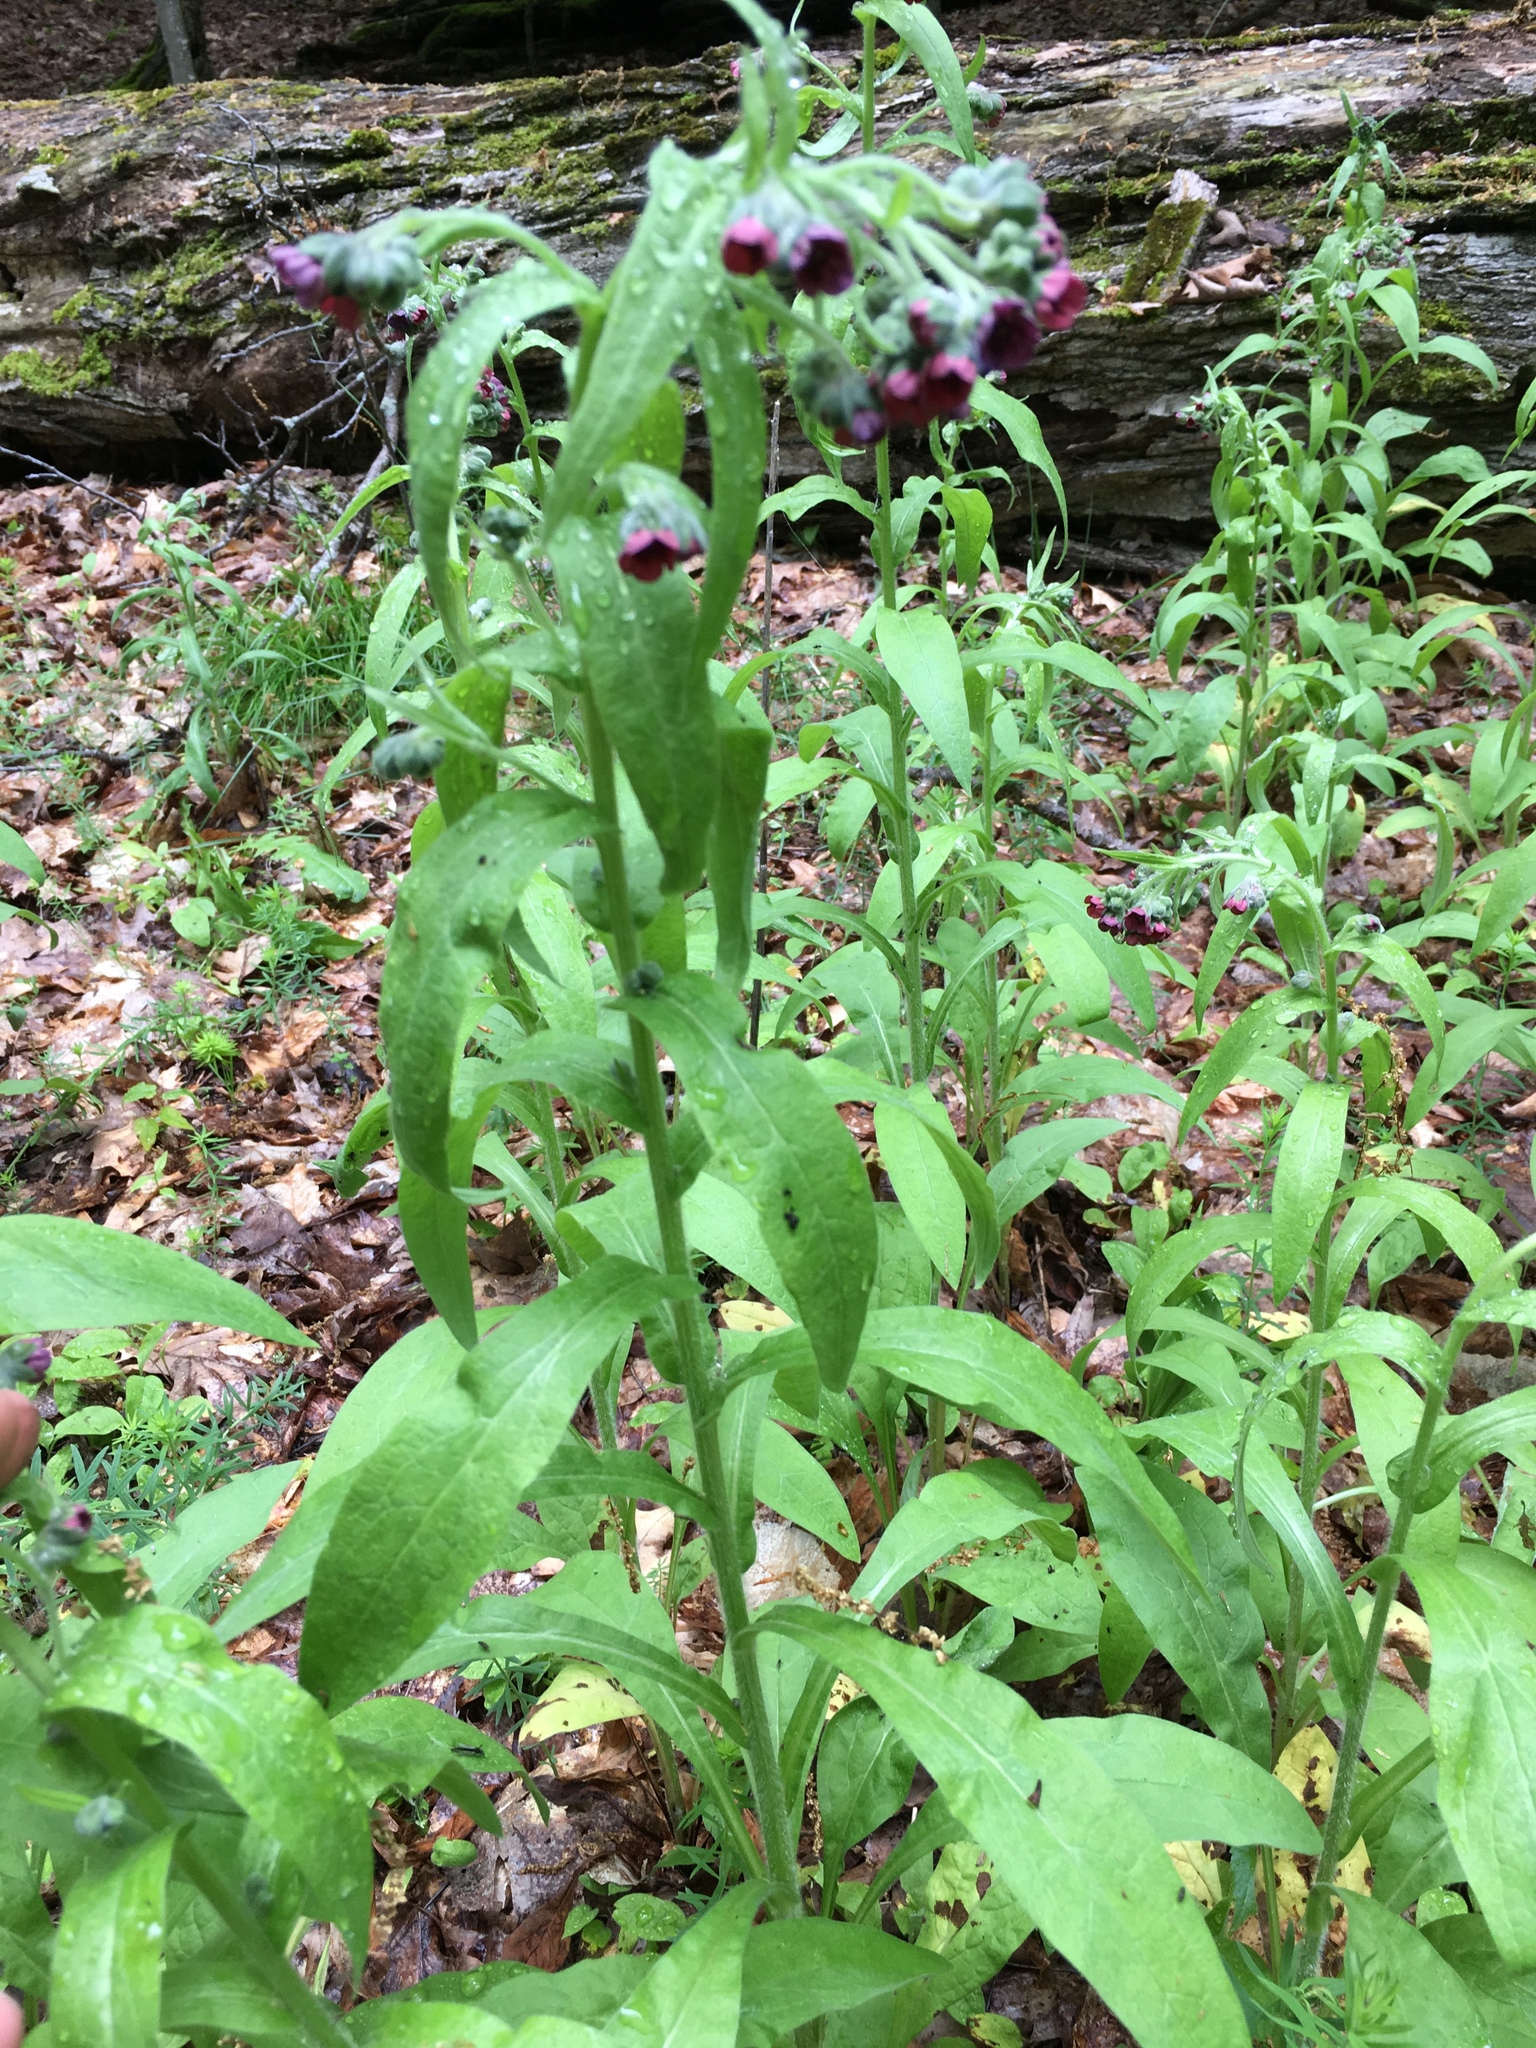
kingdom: Plantae
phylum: Tracheophyta
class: Magnoliopsida
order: Boraginales
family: Boraginaceae
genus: Cynoglossum
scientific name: Cynoglossum officinale
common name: Hound's-tongue
